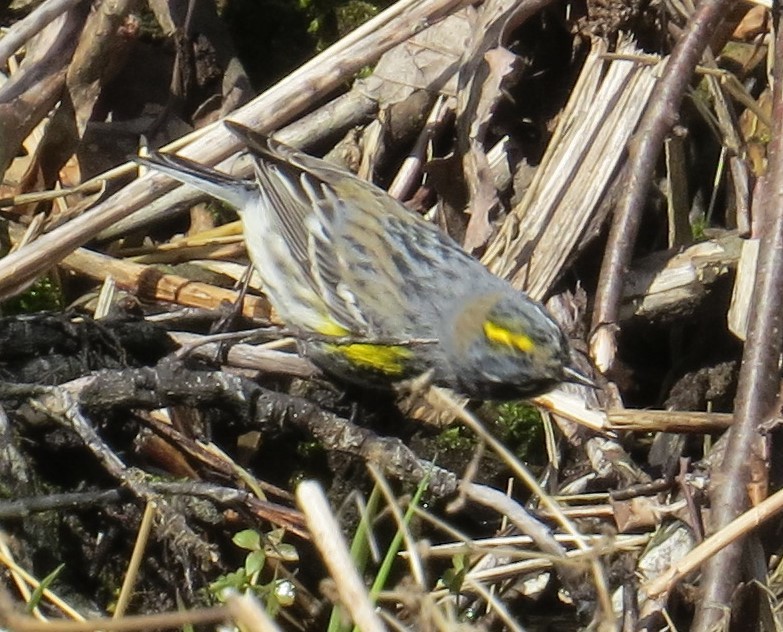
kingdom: Animalia
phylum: Chordata
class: Aves
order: Passeriformes
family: Parulidae
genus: Setophaga
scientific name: Setophaga coronata
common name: Myrtle warbler
